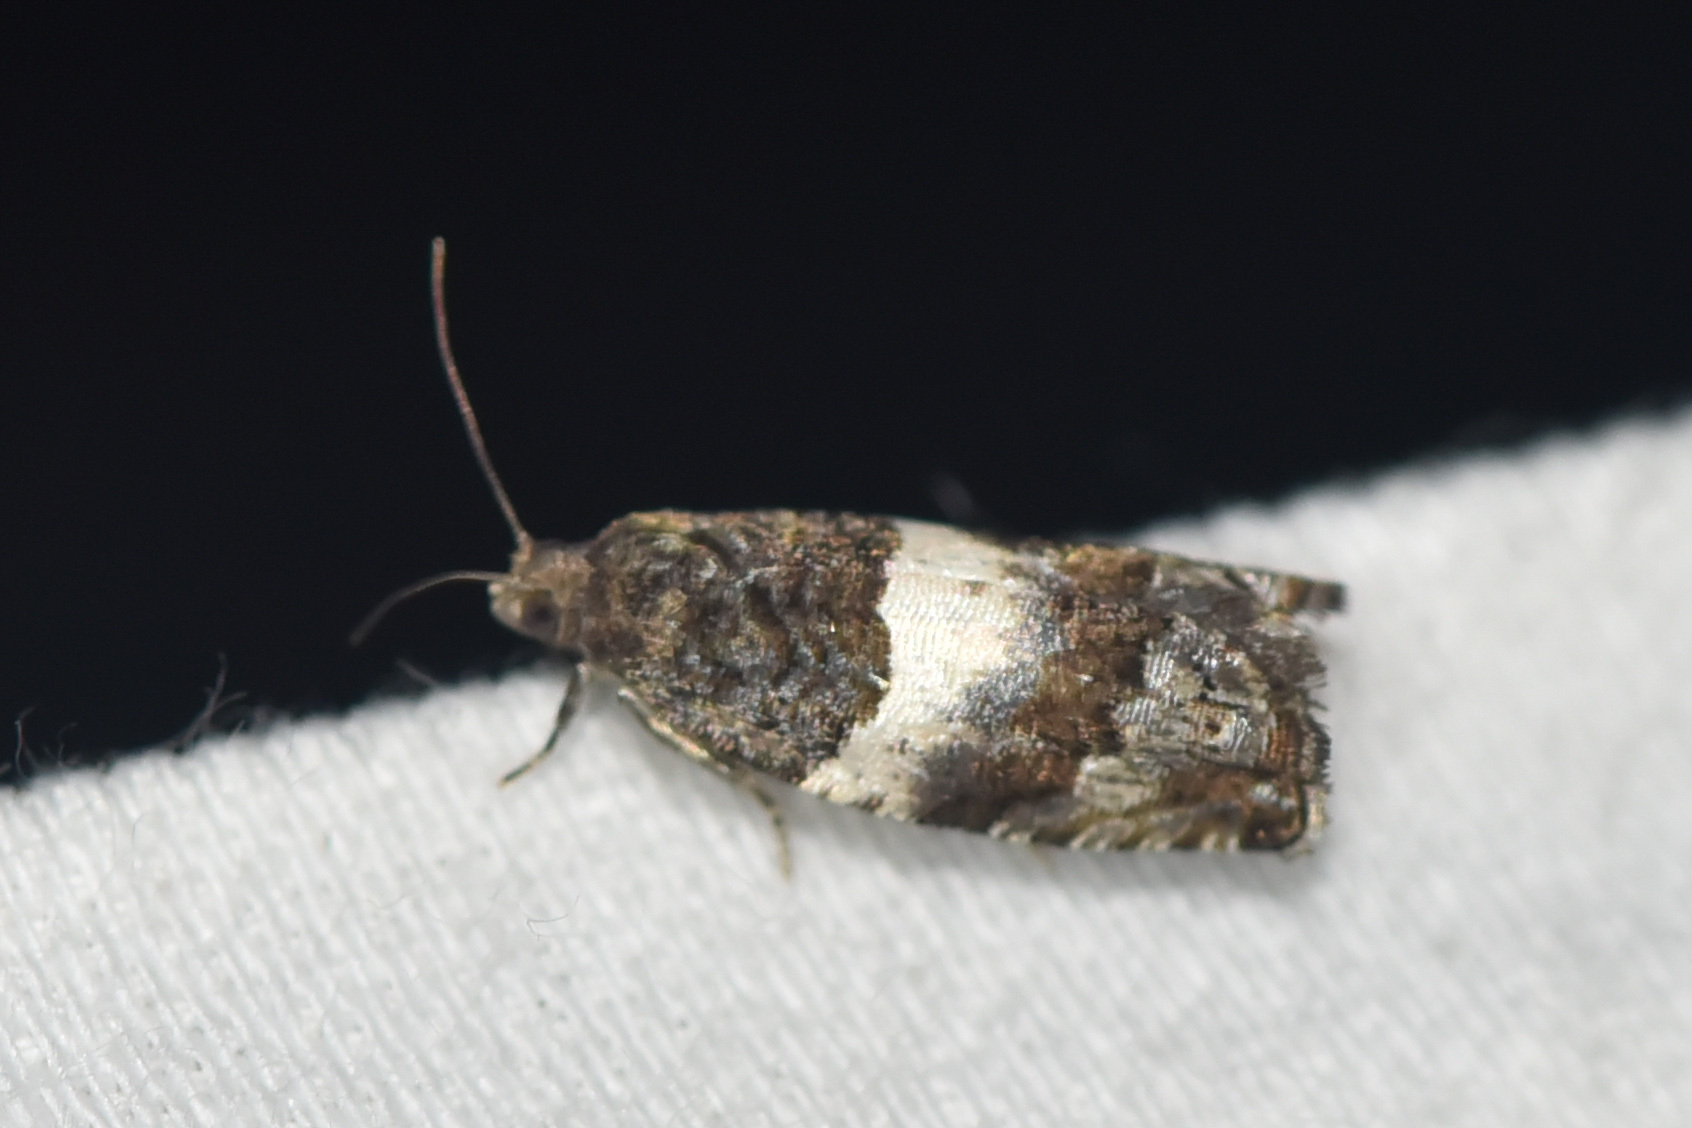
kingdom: Animalia
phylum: Arthropoda
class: Insecta
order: Lepidoptera
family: Tortricidae
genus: Gypsonoma
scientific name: Gypsonoma substitutionis
